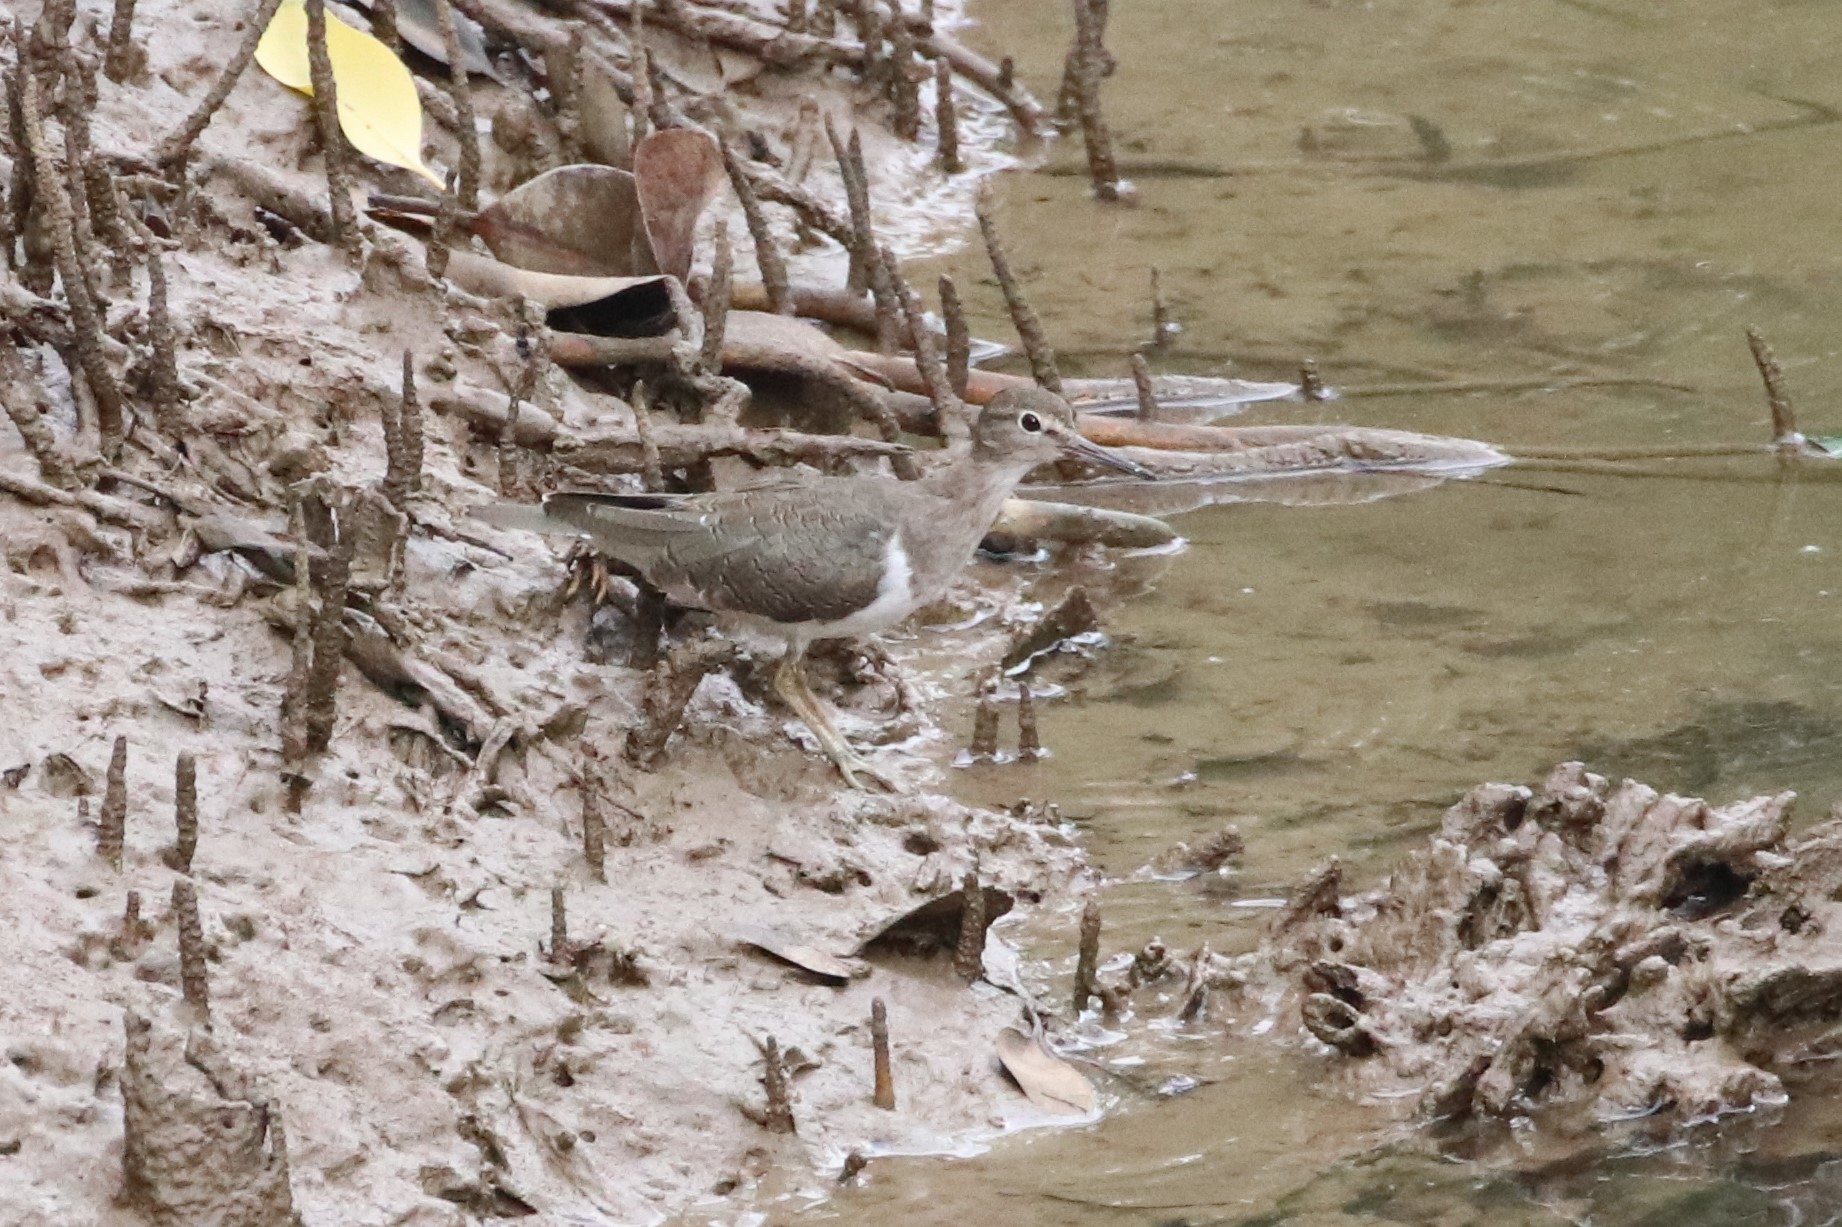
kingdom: Animalia
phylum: Chordata
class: Aves
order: Charadriiformes
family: Scolopacidae
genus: Actitis
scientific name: Actitis hypoleucos
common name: Common sandpiper
